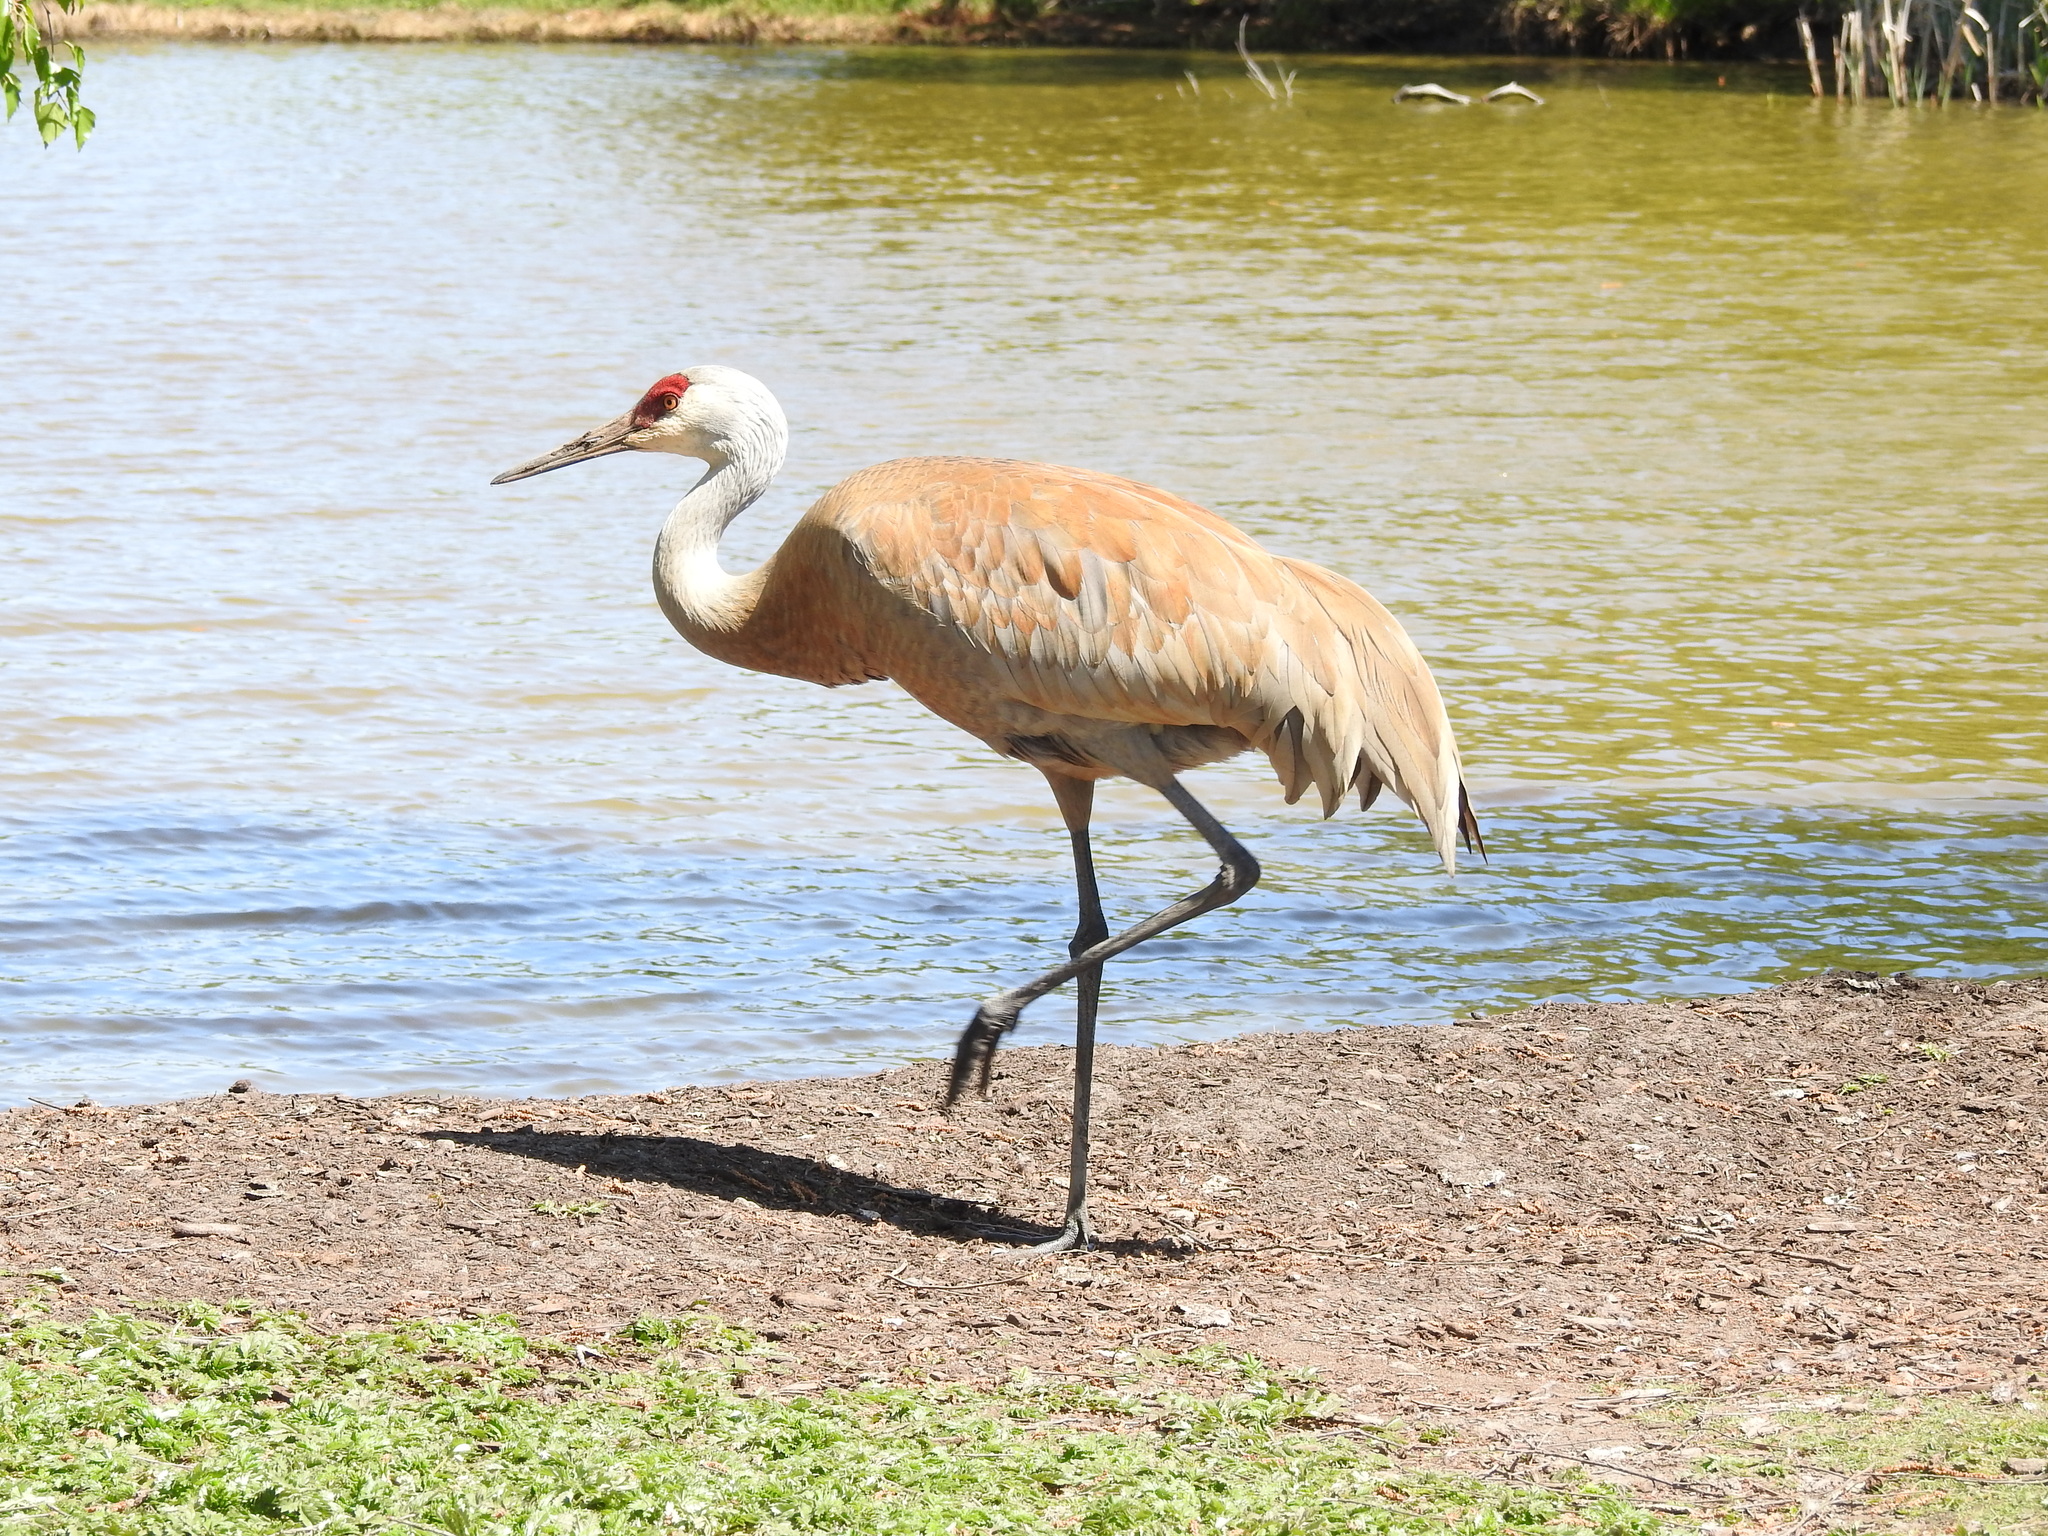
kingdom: Animalia
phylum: Chordata
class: Aves
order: Gruiformes
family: Gruidae
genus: Grus
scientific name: Grus canadensis
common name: Sandhill crane
